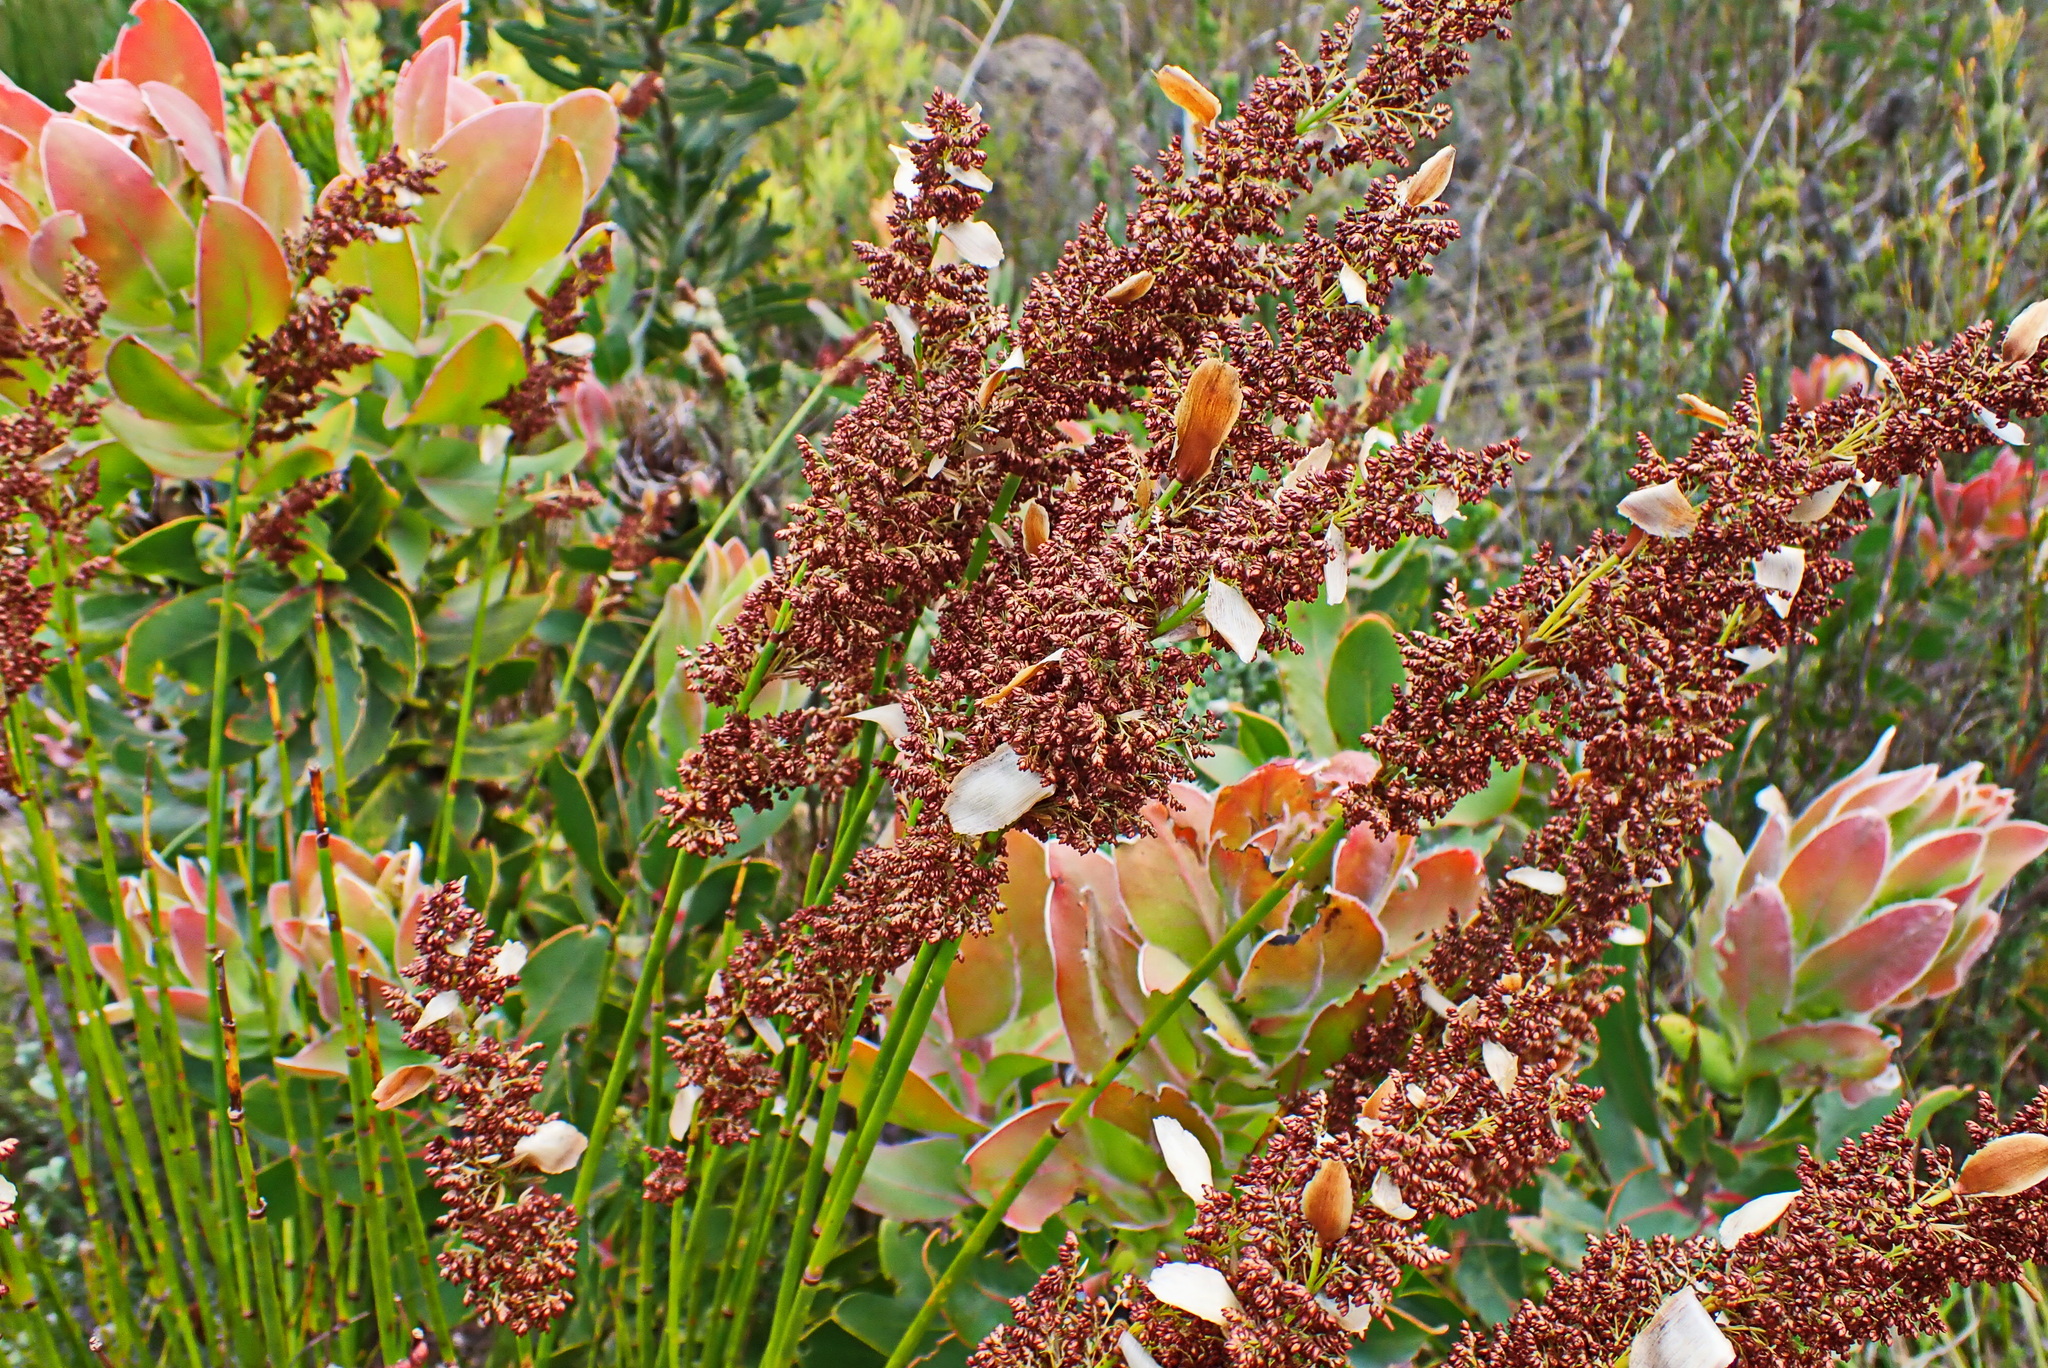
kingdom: Plantae
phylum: Tracheophyta
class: Liliopsida
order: Poales
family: Restionaceae
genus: Elegia
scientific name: Elegia equisetacea
